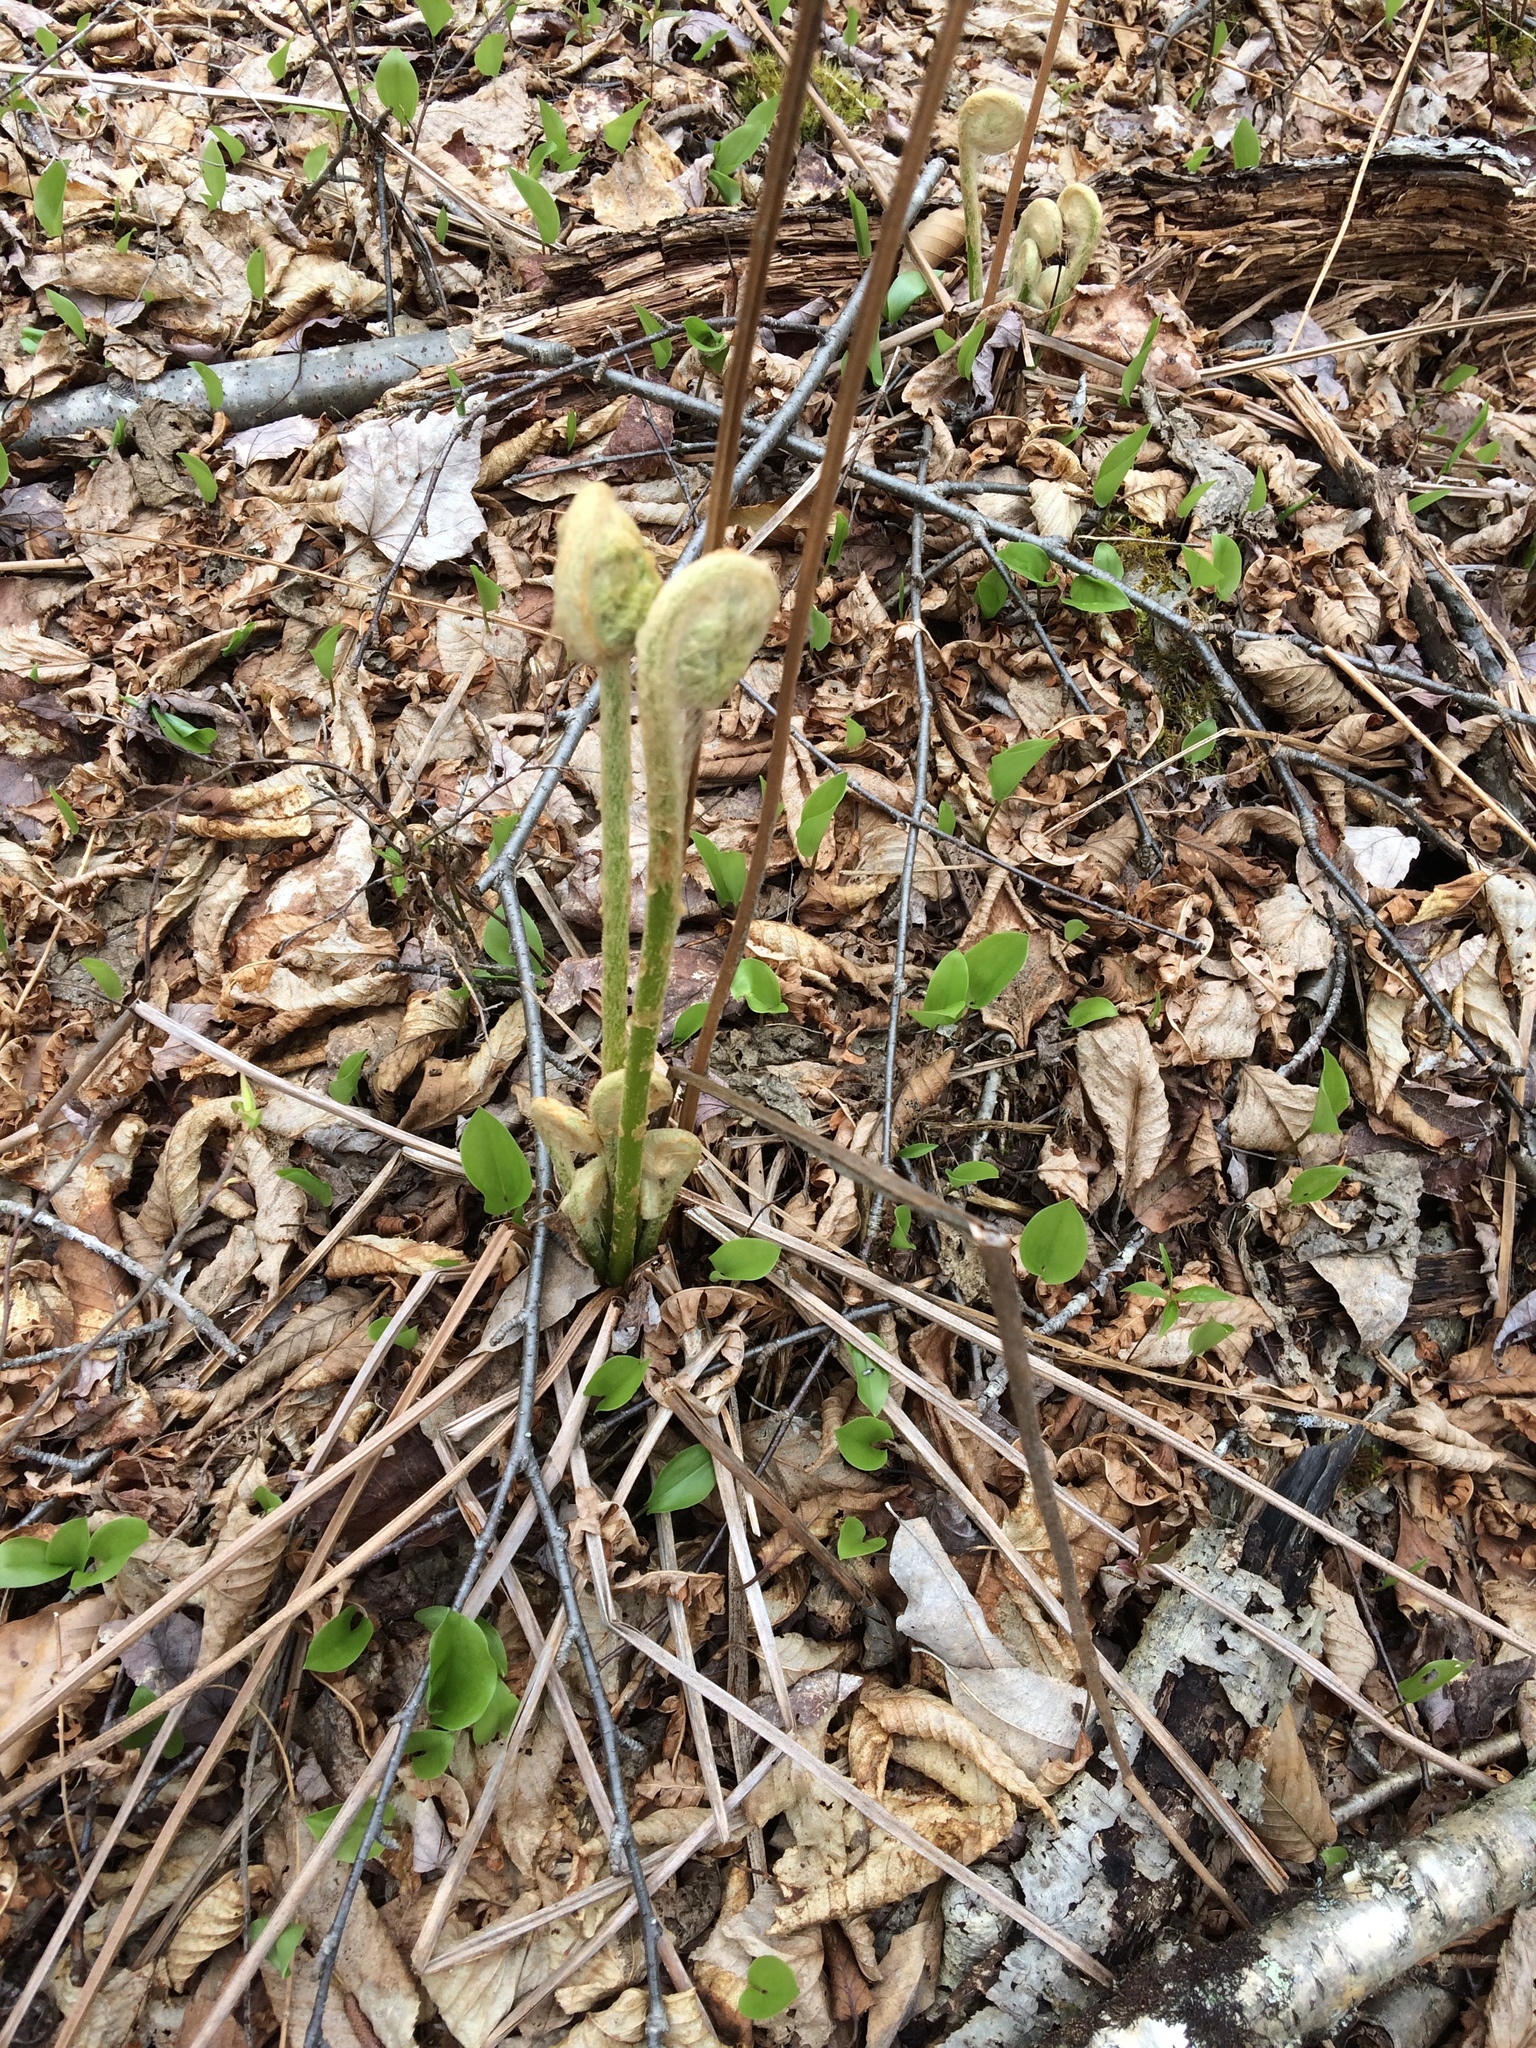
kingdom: Plantae
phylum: Tracheophyta
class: Polypodiopsida
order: Osmundales
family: Osmundaceae
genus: Osmundastrum
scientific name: Osmundastrum cinnamomeum
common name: Cinnamon fern
